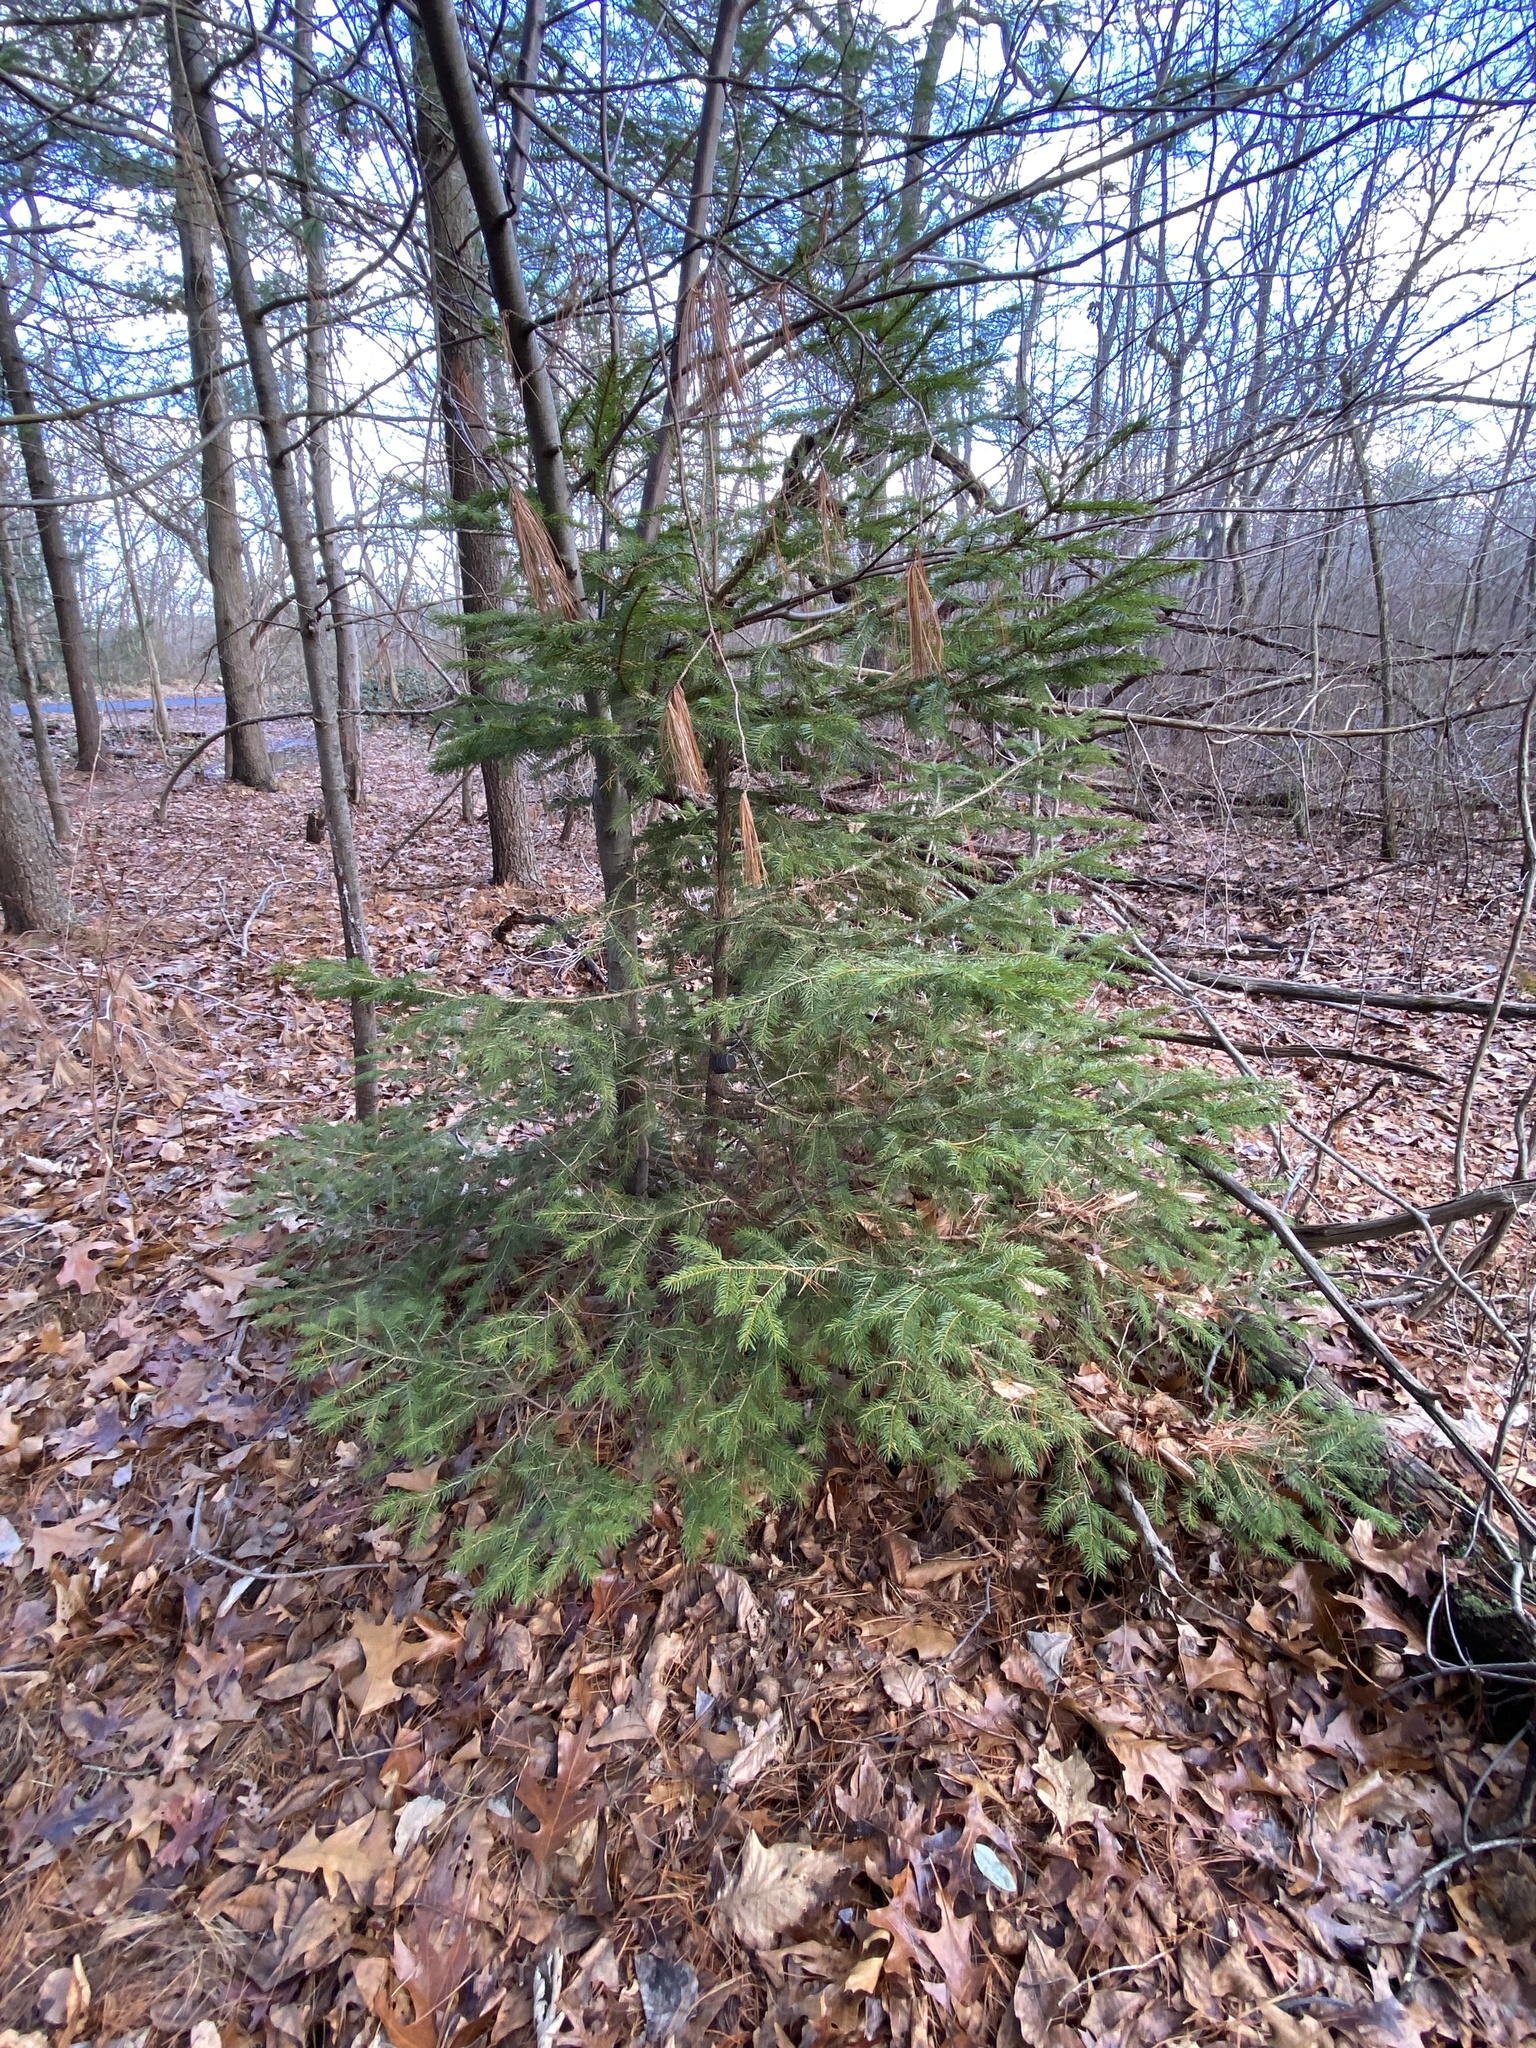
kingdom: Plantae
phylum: Tracheophyta
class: Pinopsida
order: Pinales
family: Pinaceae
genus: Picea
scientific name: Picea abies
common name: Norway spruce
